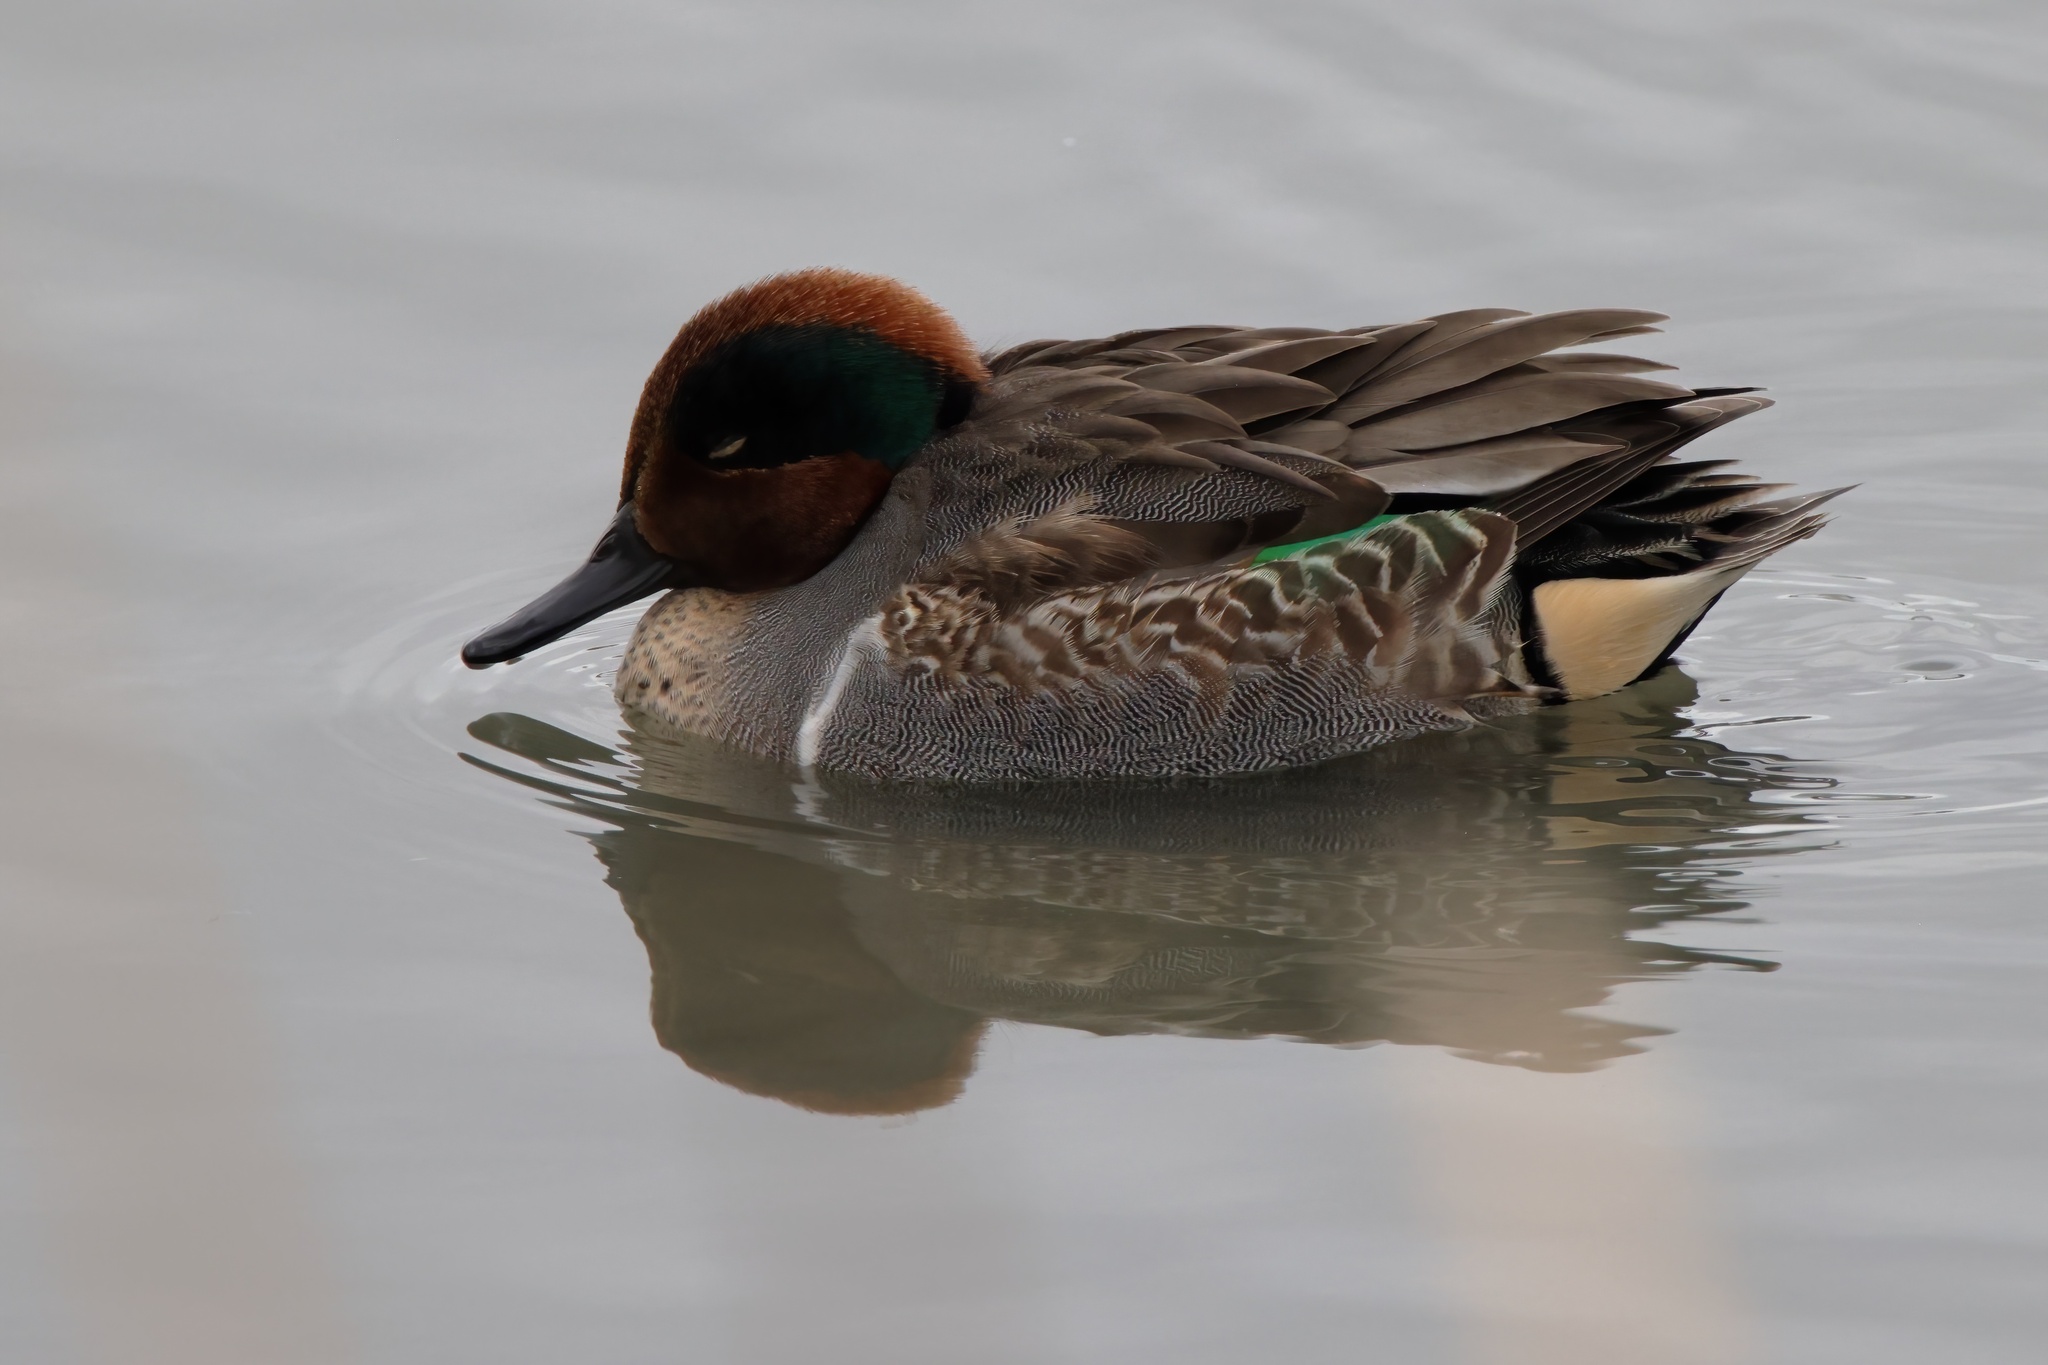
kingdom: Animalia
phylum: Chordata
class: Aves
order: Anseriformes
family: Anatidae
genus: Anas
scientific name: Anas crecca
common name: Eurasian teal
